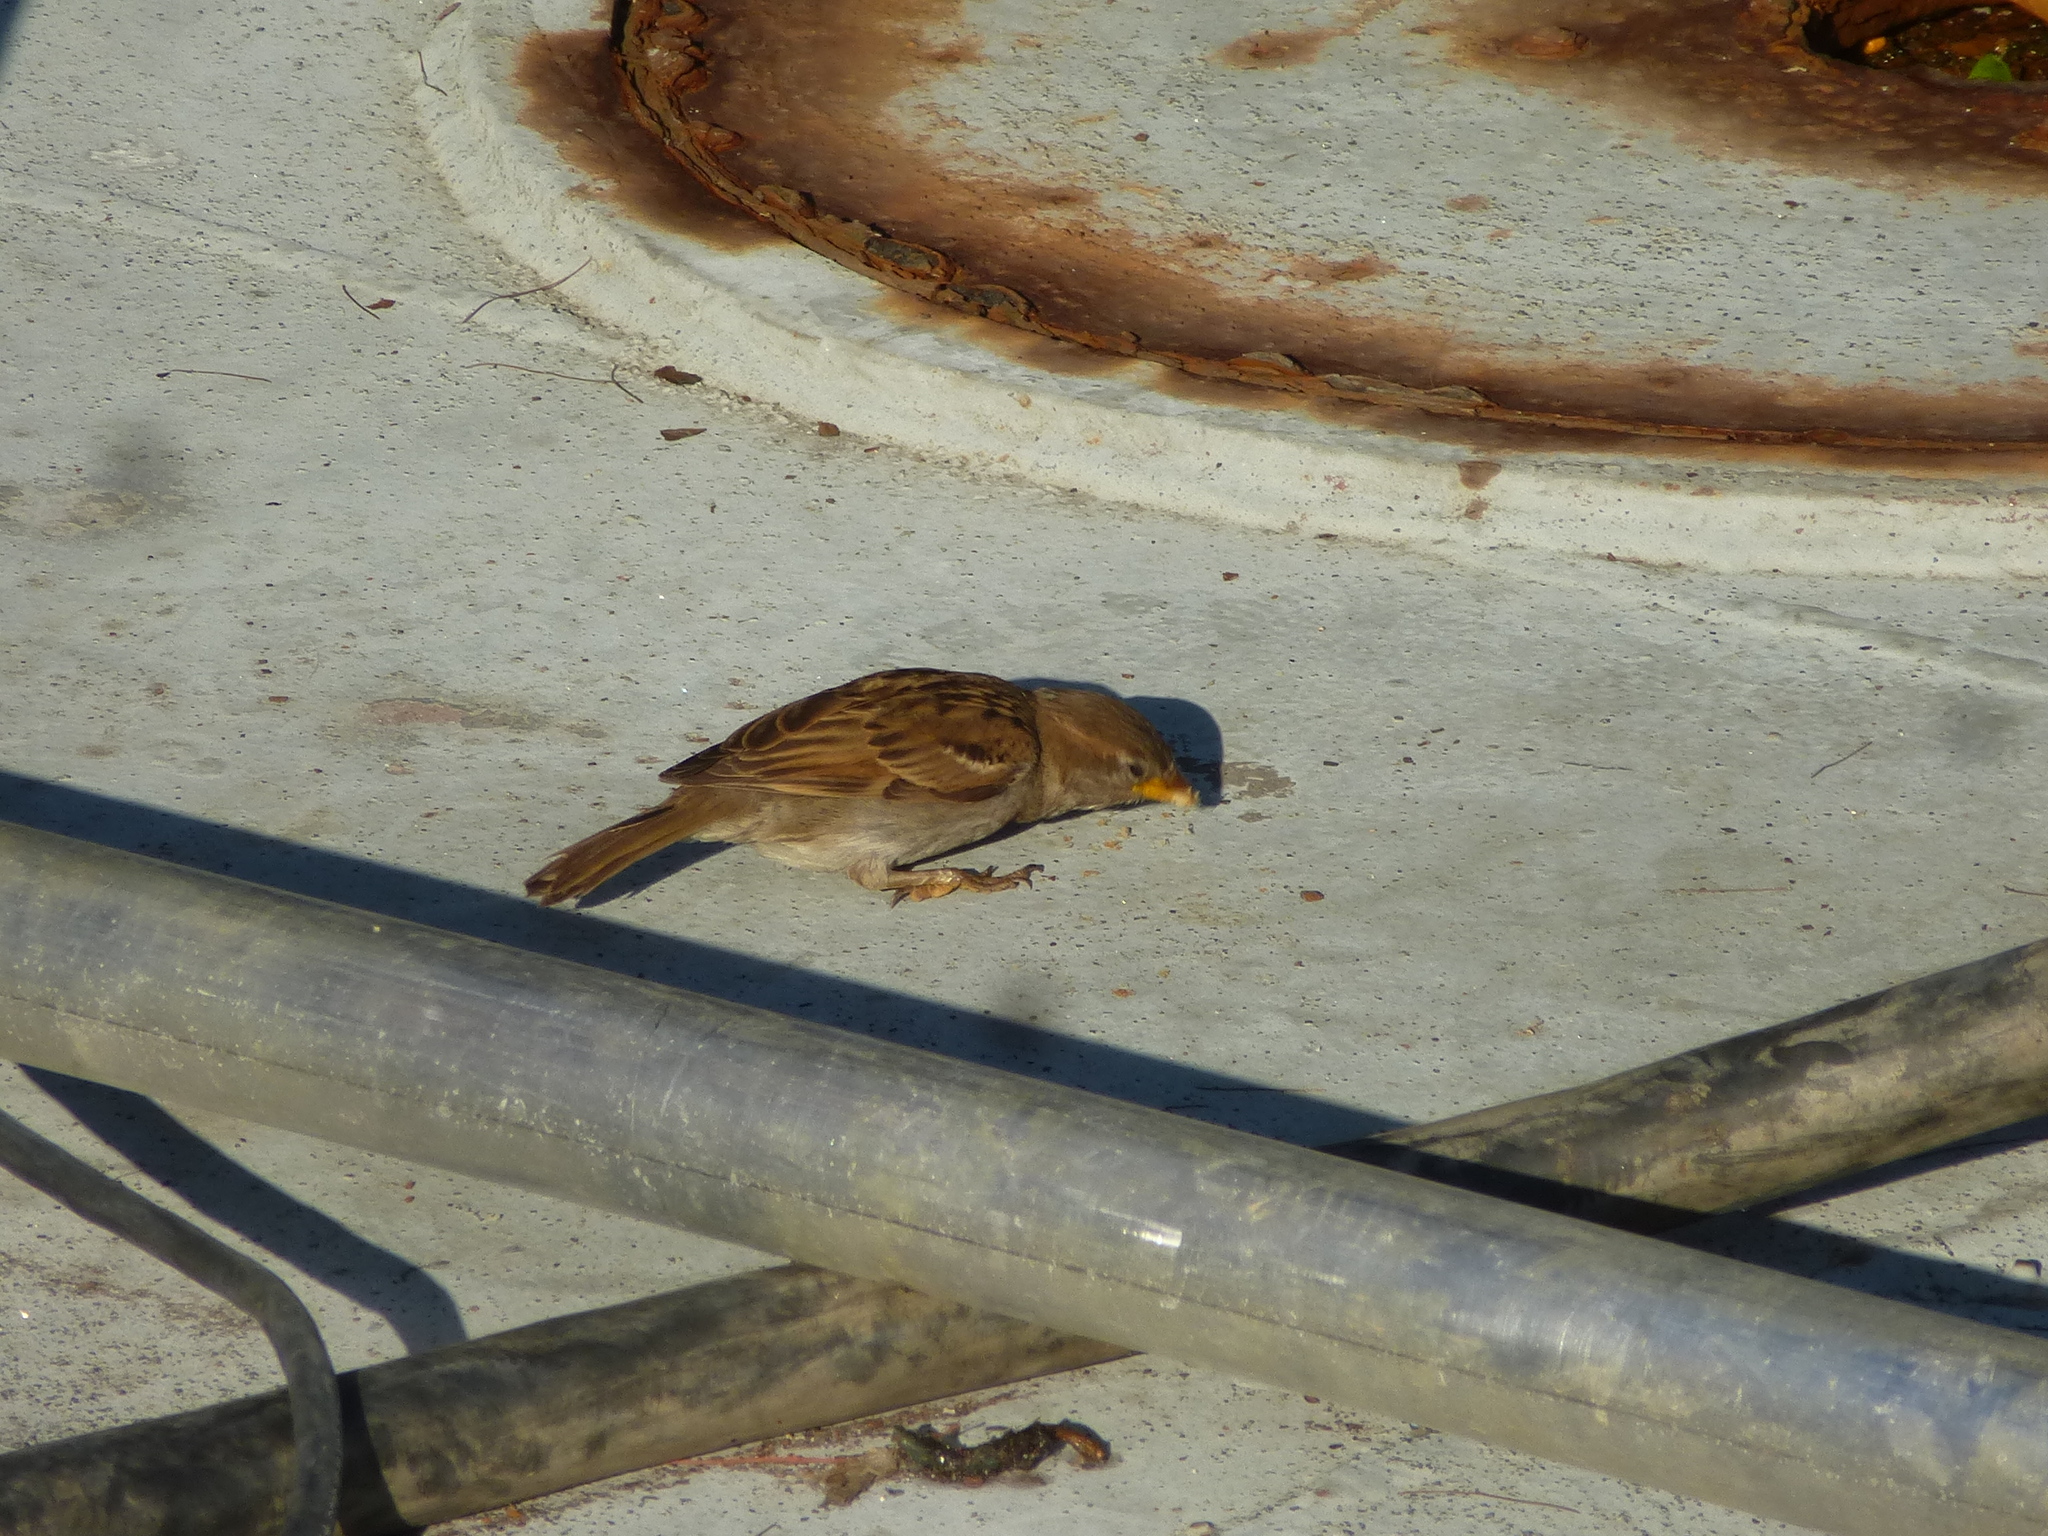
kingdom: Animalia
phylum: Chordata
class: Aves
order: Passeriformes
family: Passeridae
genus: Passer
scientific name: Passer domesticus
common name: House sparrow
